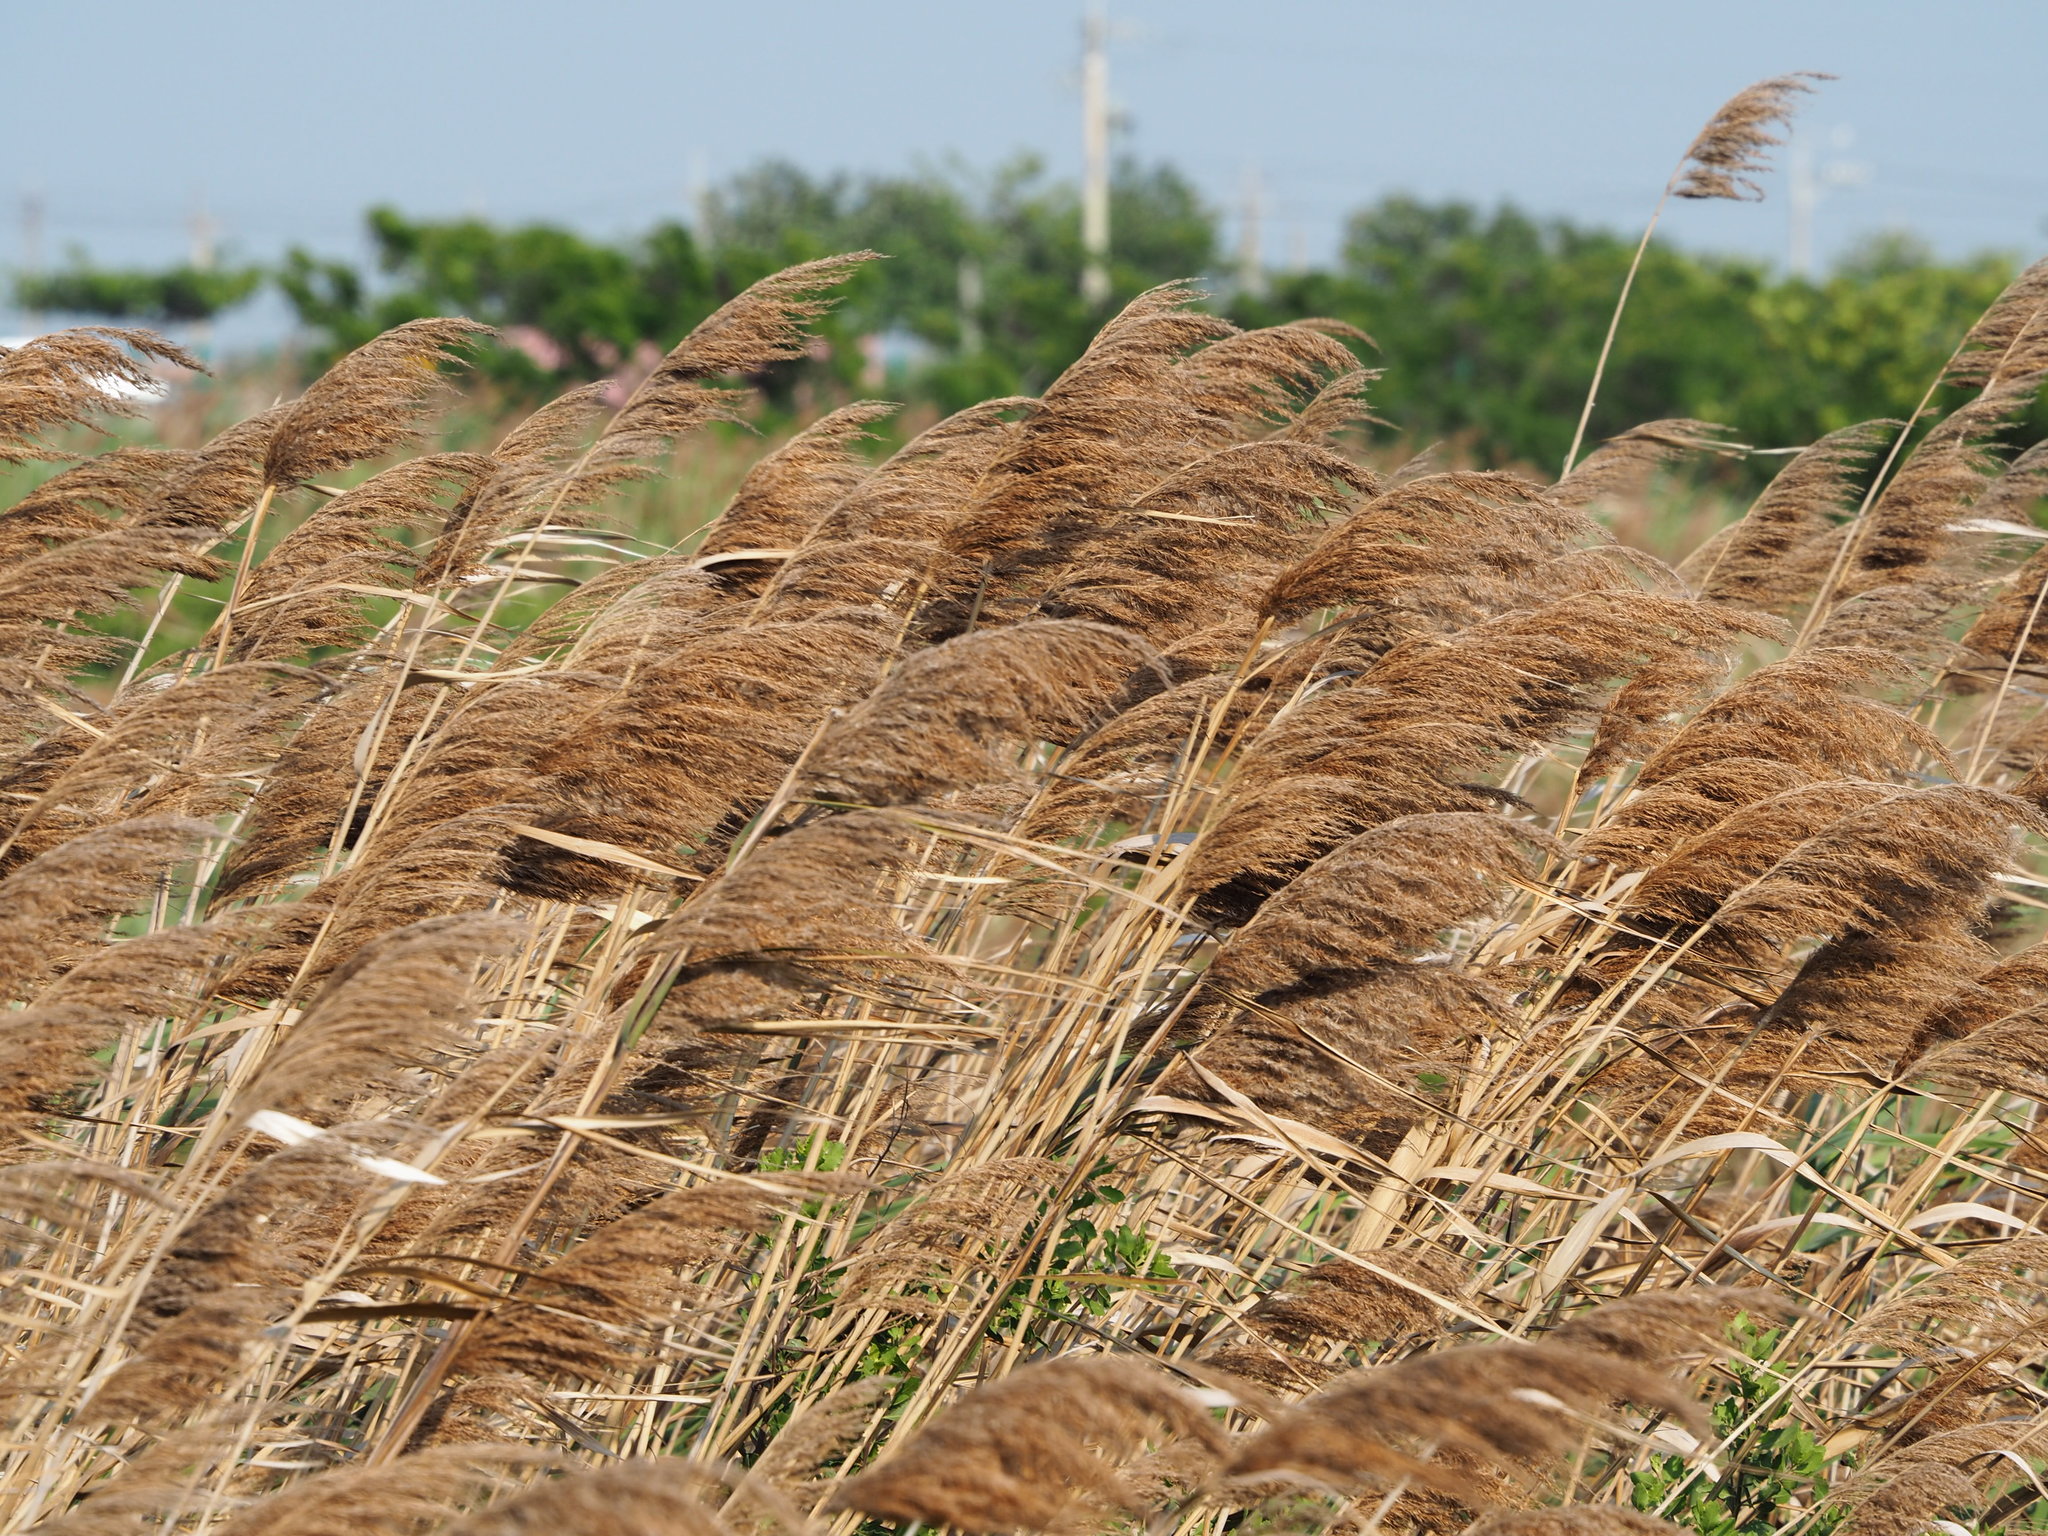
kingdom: Plantae
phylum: Tracheophyta
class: Liliopsida
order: Poales
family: Poaceae
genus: Phragmites
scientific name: Phragmites australis
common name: Common reed
